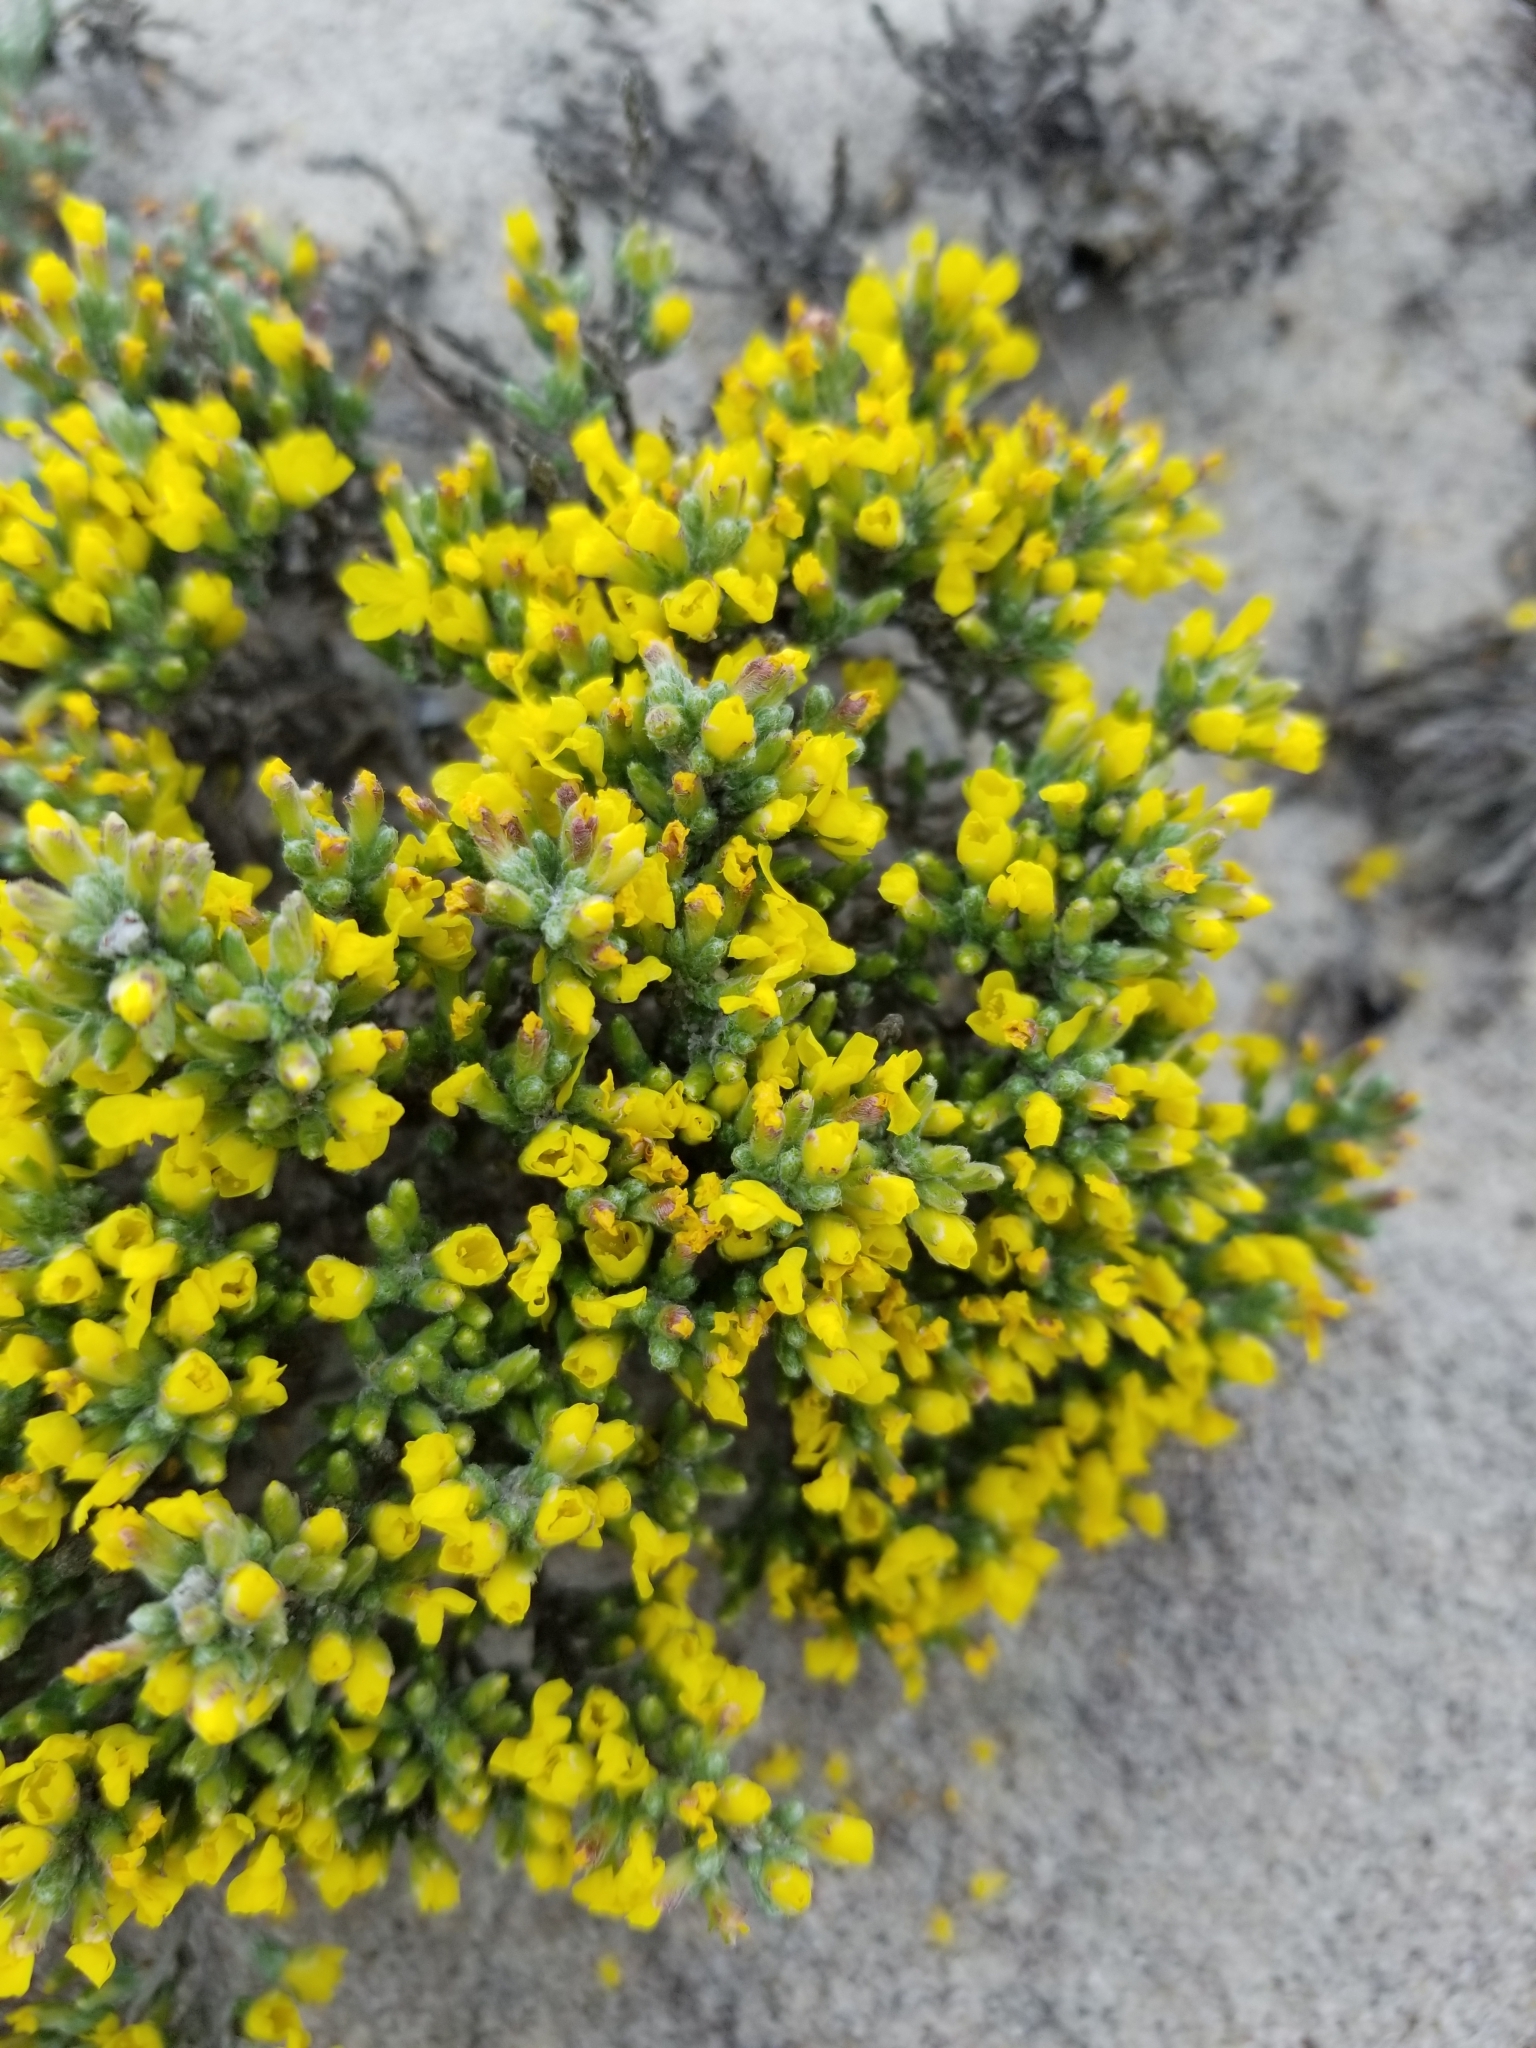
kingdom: Plantae
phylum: Tracheophyta
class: Magnoliopsida
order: Malvales
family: Cistaceae
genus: Hudsonia
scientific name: Hudsonia tomentosa
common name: Beach-heath
